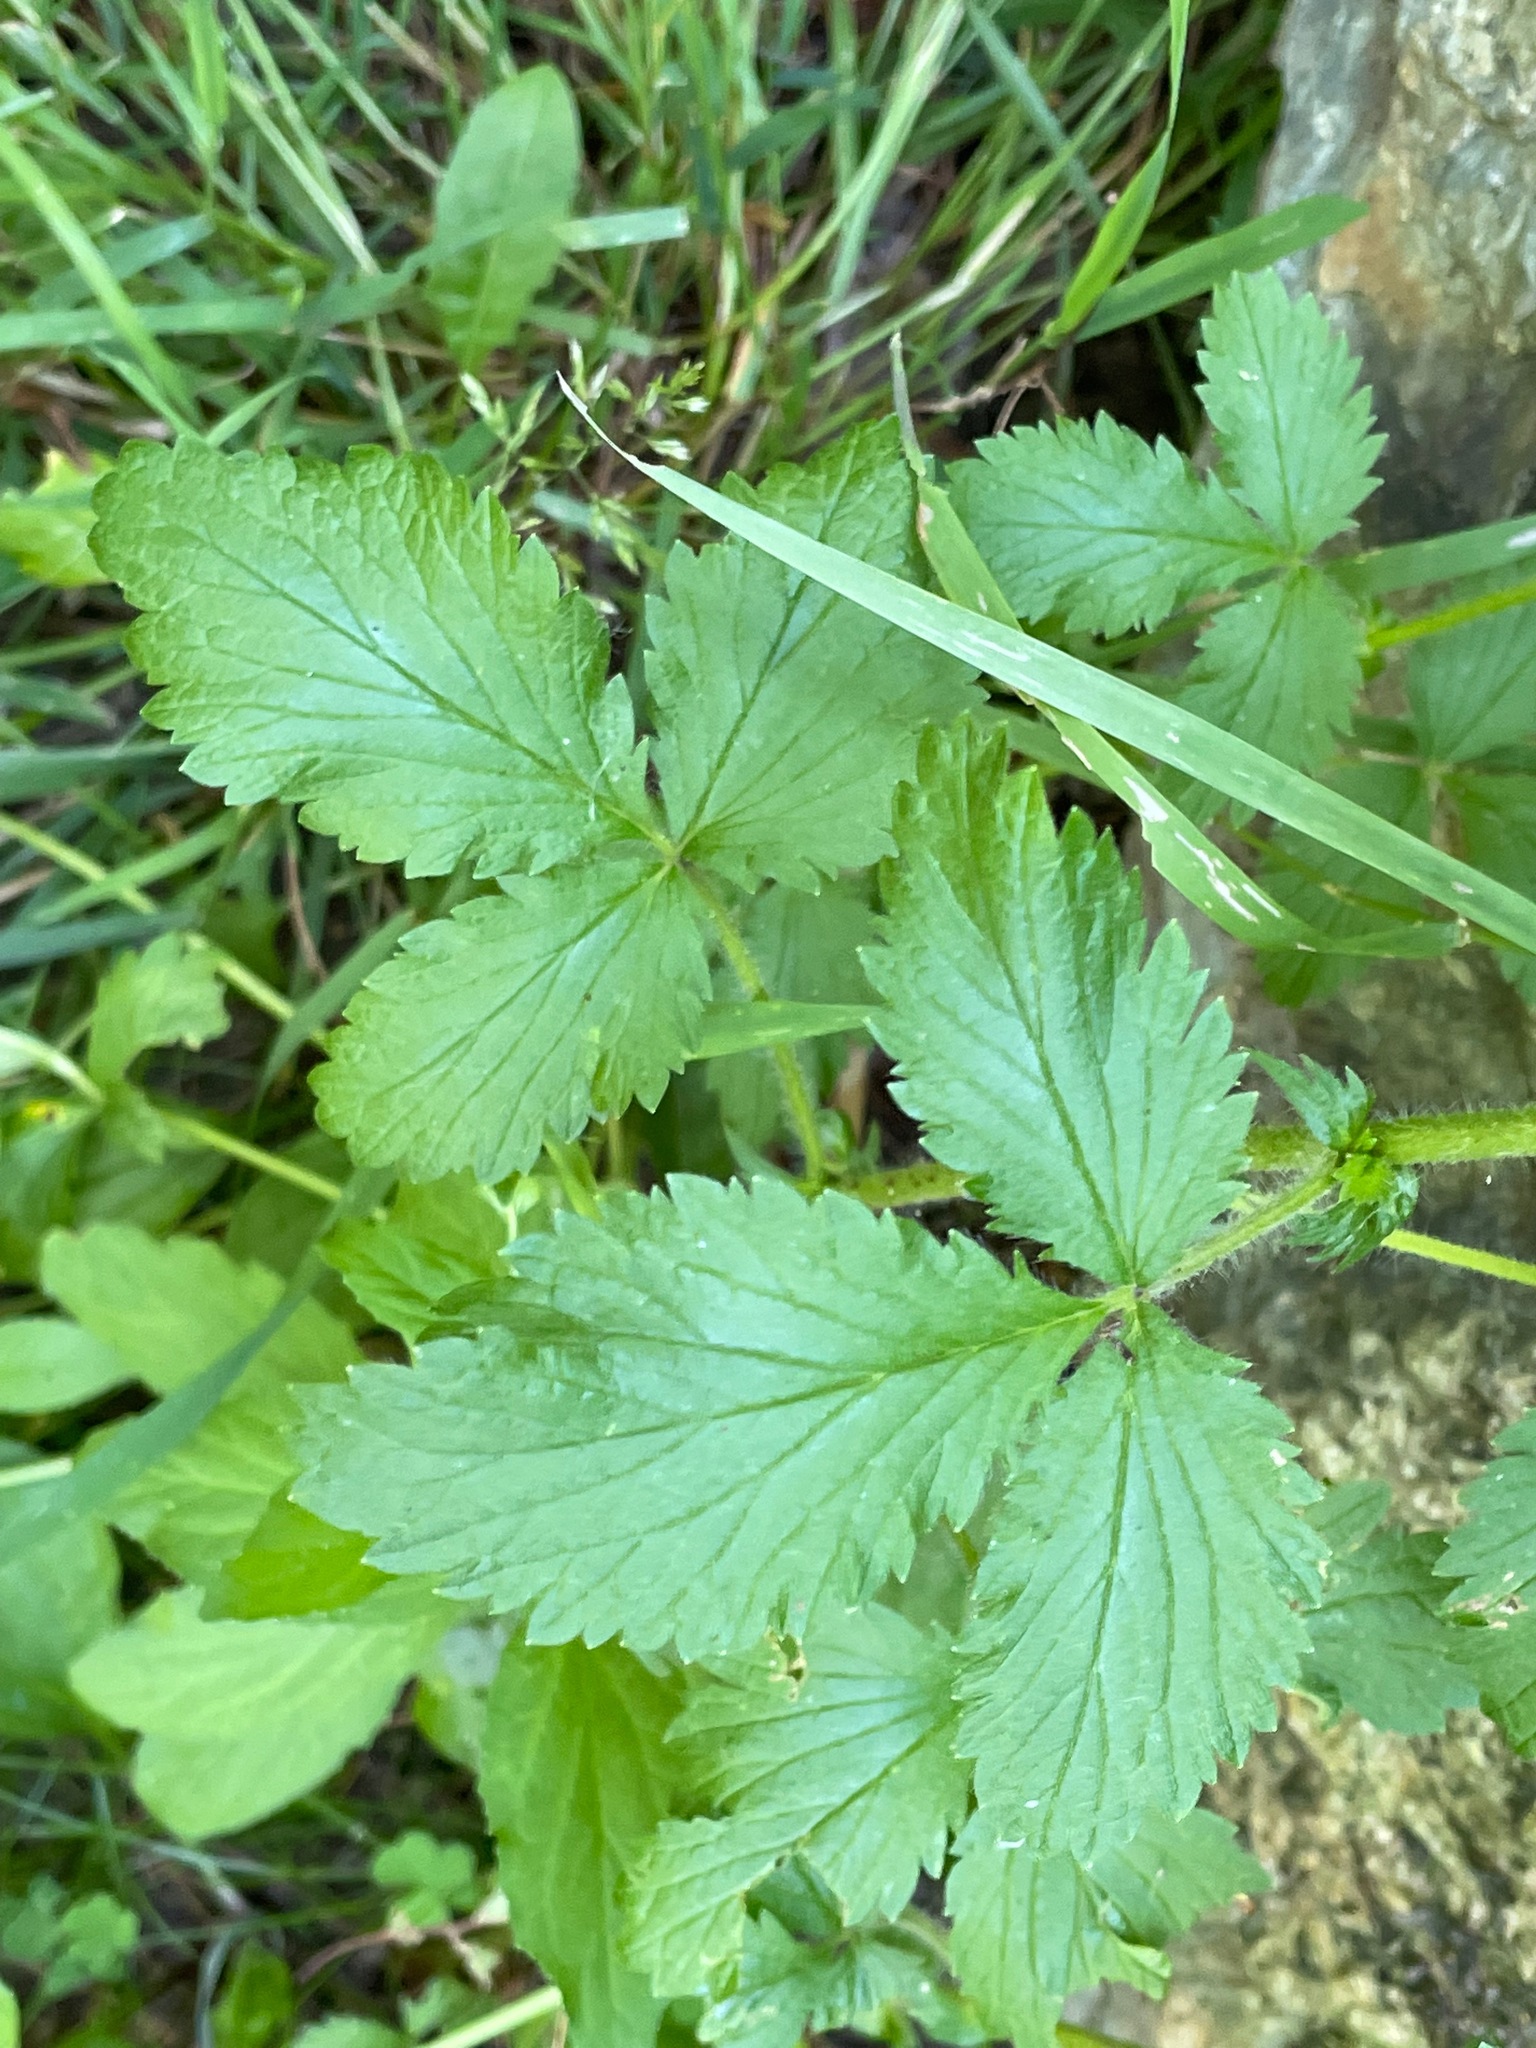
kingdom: Plantae
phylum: Tracheophyta
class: Magnoliopsida
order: Rosales
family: Rosaceae
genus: Potentilla
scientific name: Potentilla norvegica
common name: Ternate-leaved cinquefoil
